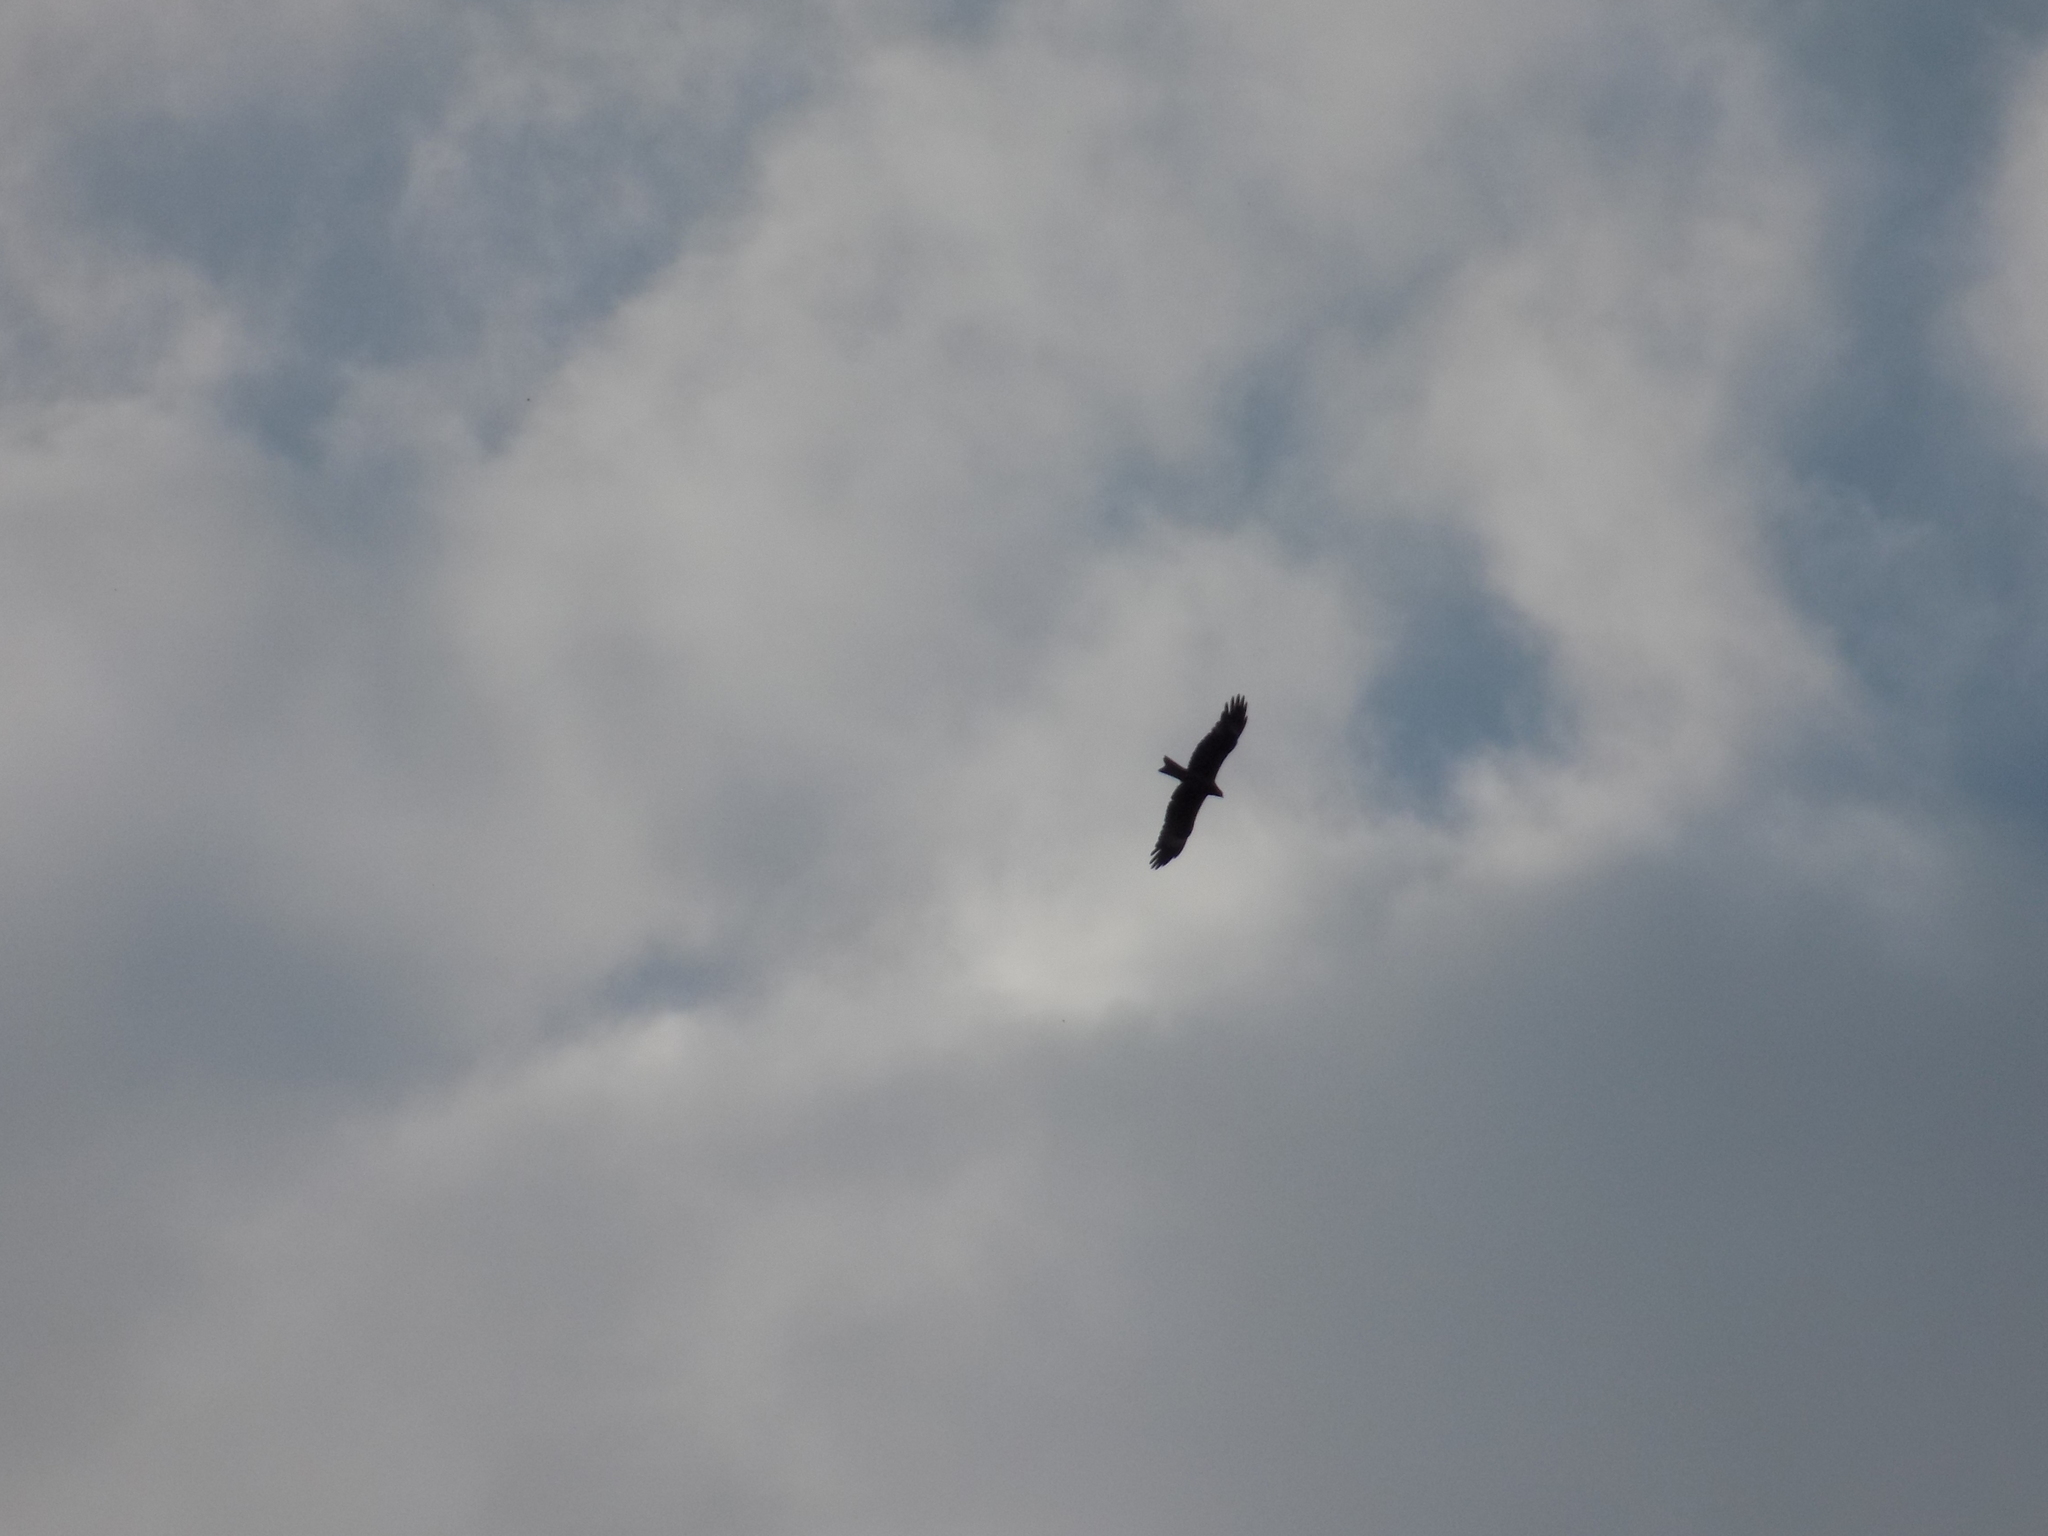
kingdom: Animalia
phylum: Chordata
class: Aves
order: Accipitriformes
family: Accipitridae
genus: Milvus
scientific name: Milvus migrans
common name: Black kite
